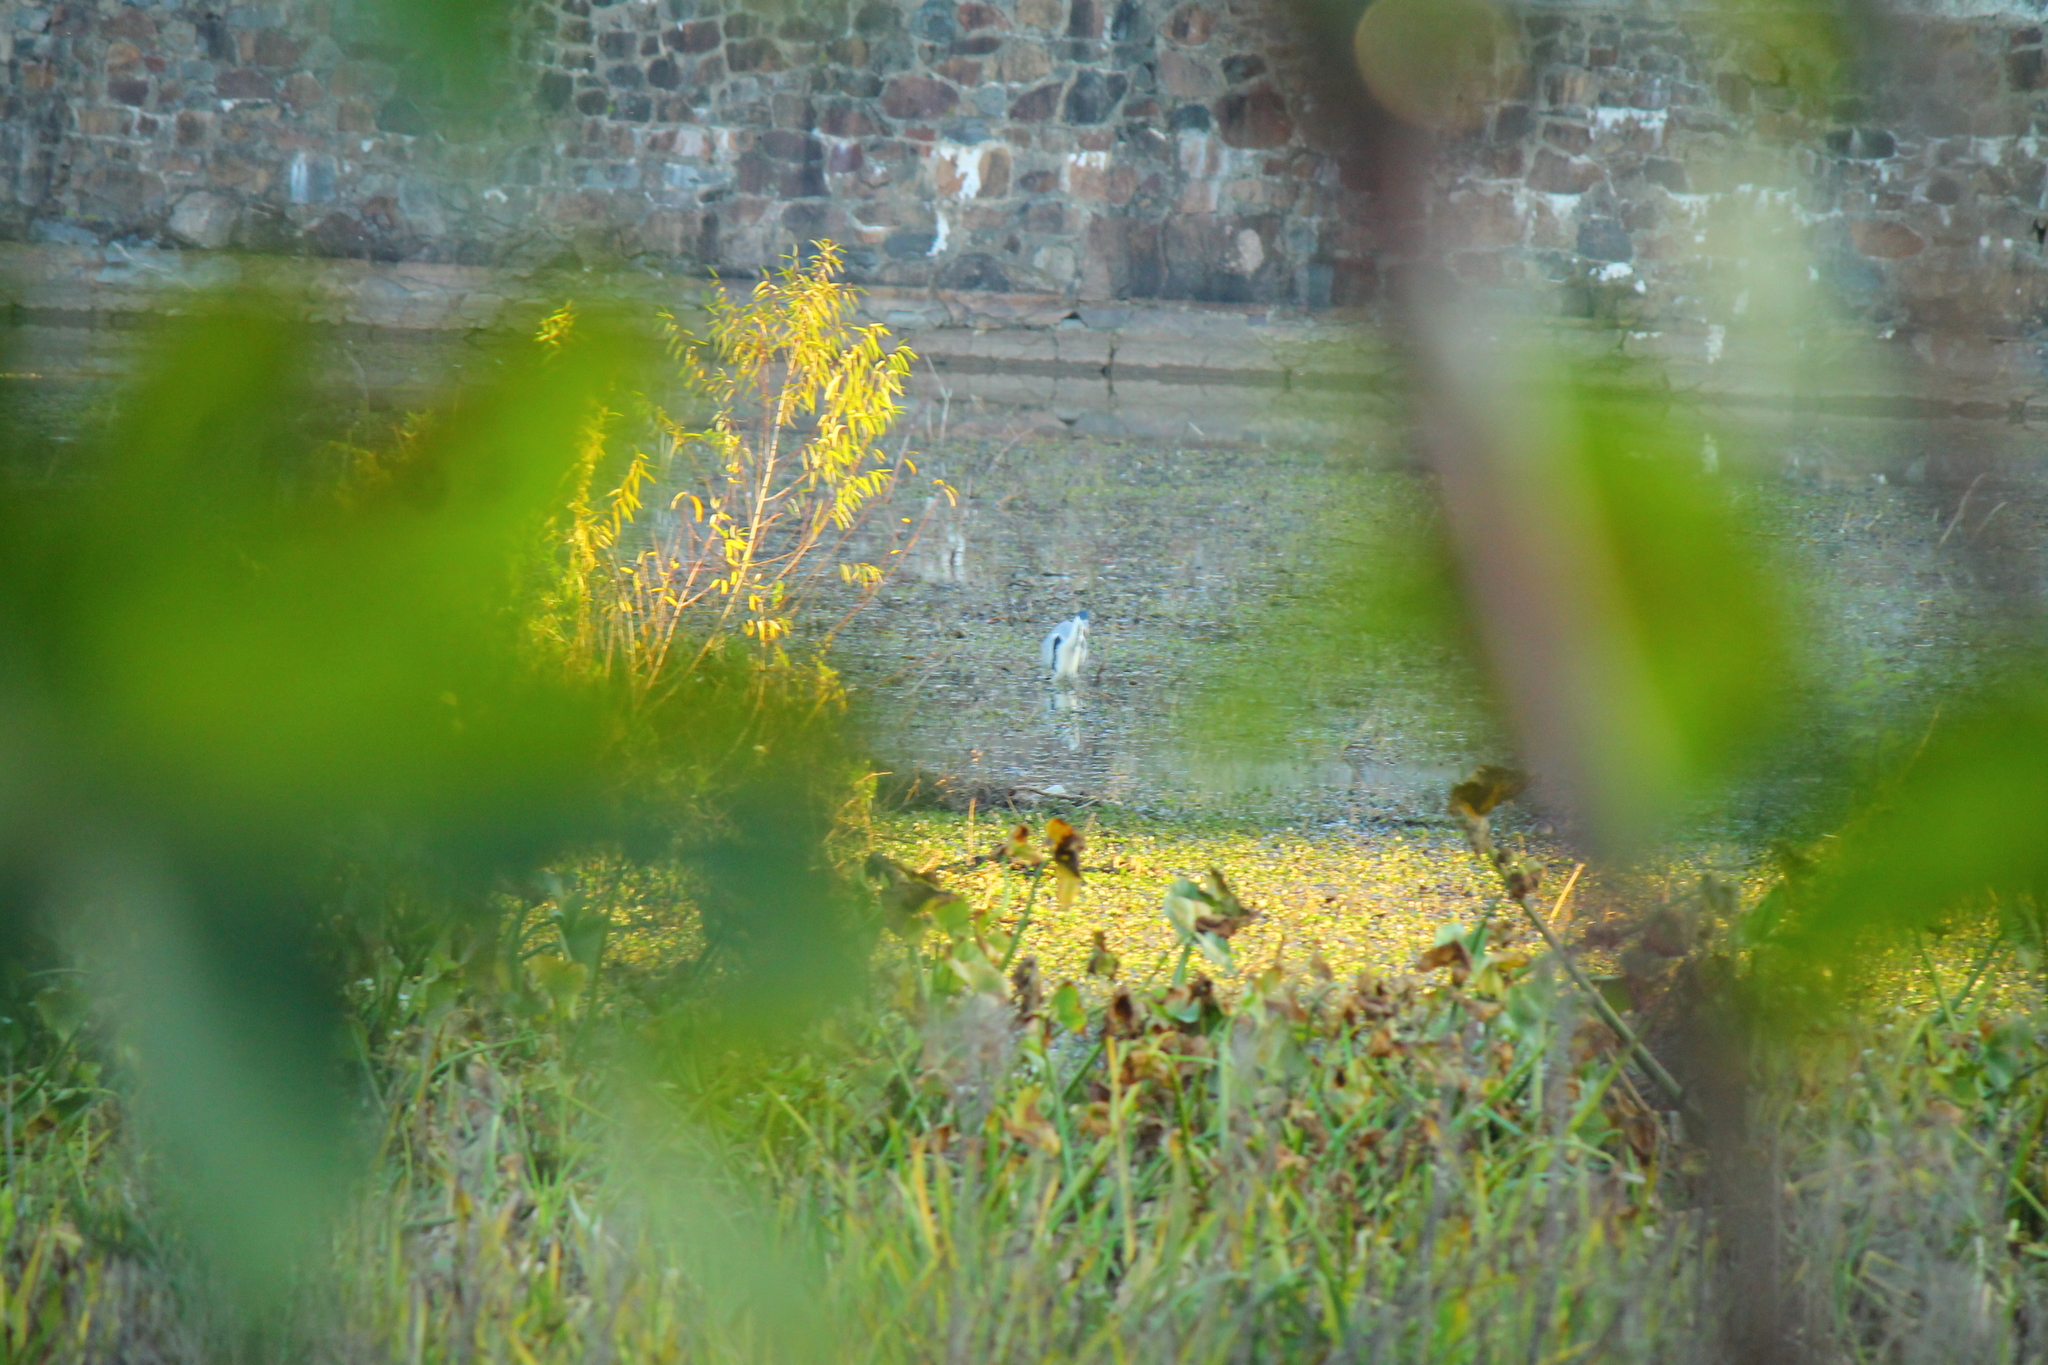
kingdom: Animalia
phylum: Chordata
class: Aves
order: Pelecaniformes
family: Ardeidae
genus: Ardea
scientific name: Ardea cocoi
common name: Cocoi heron
